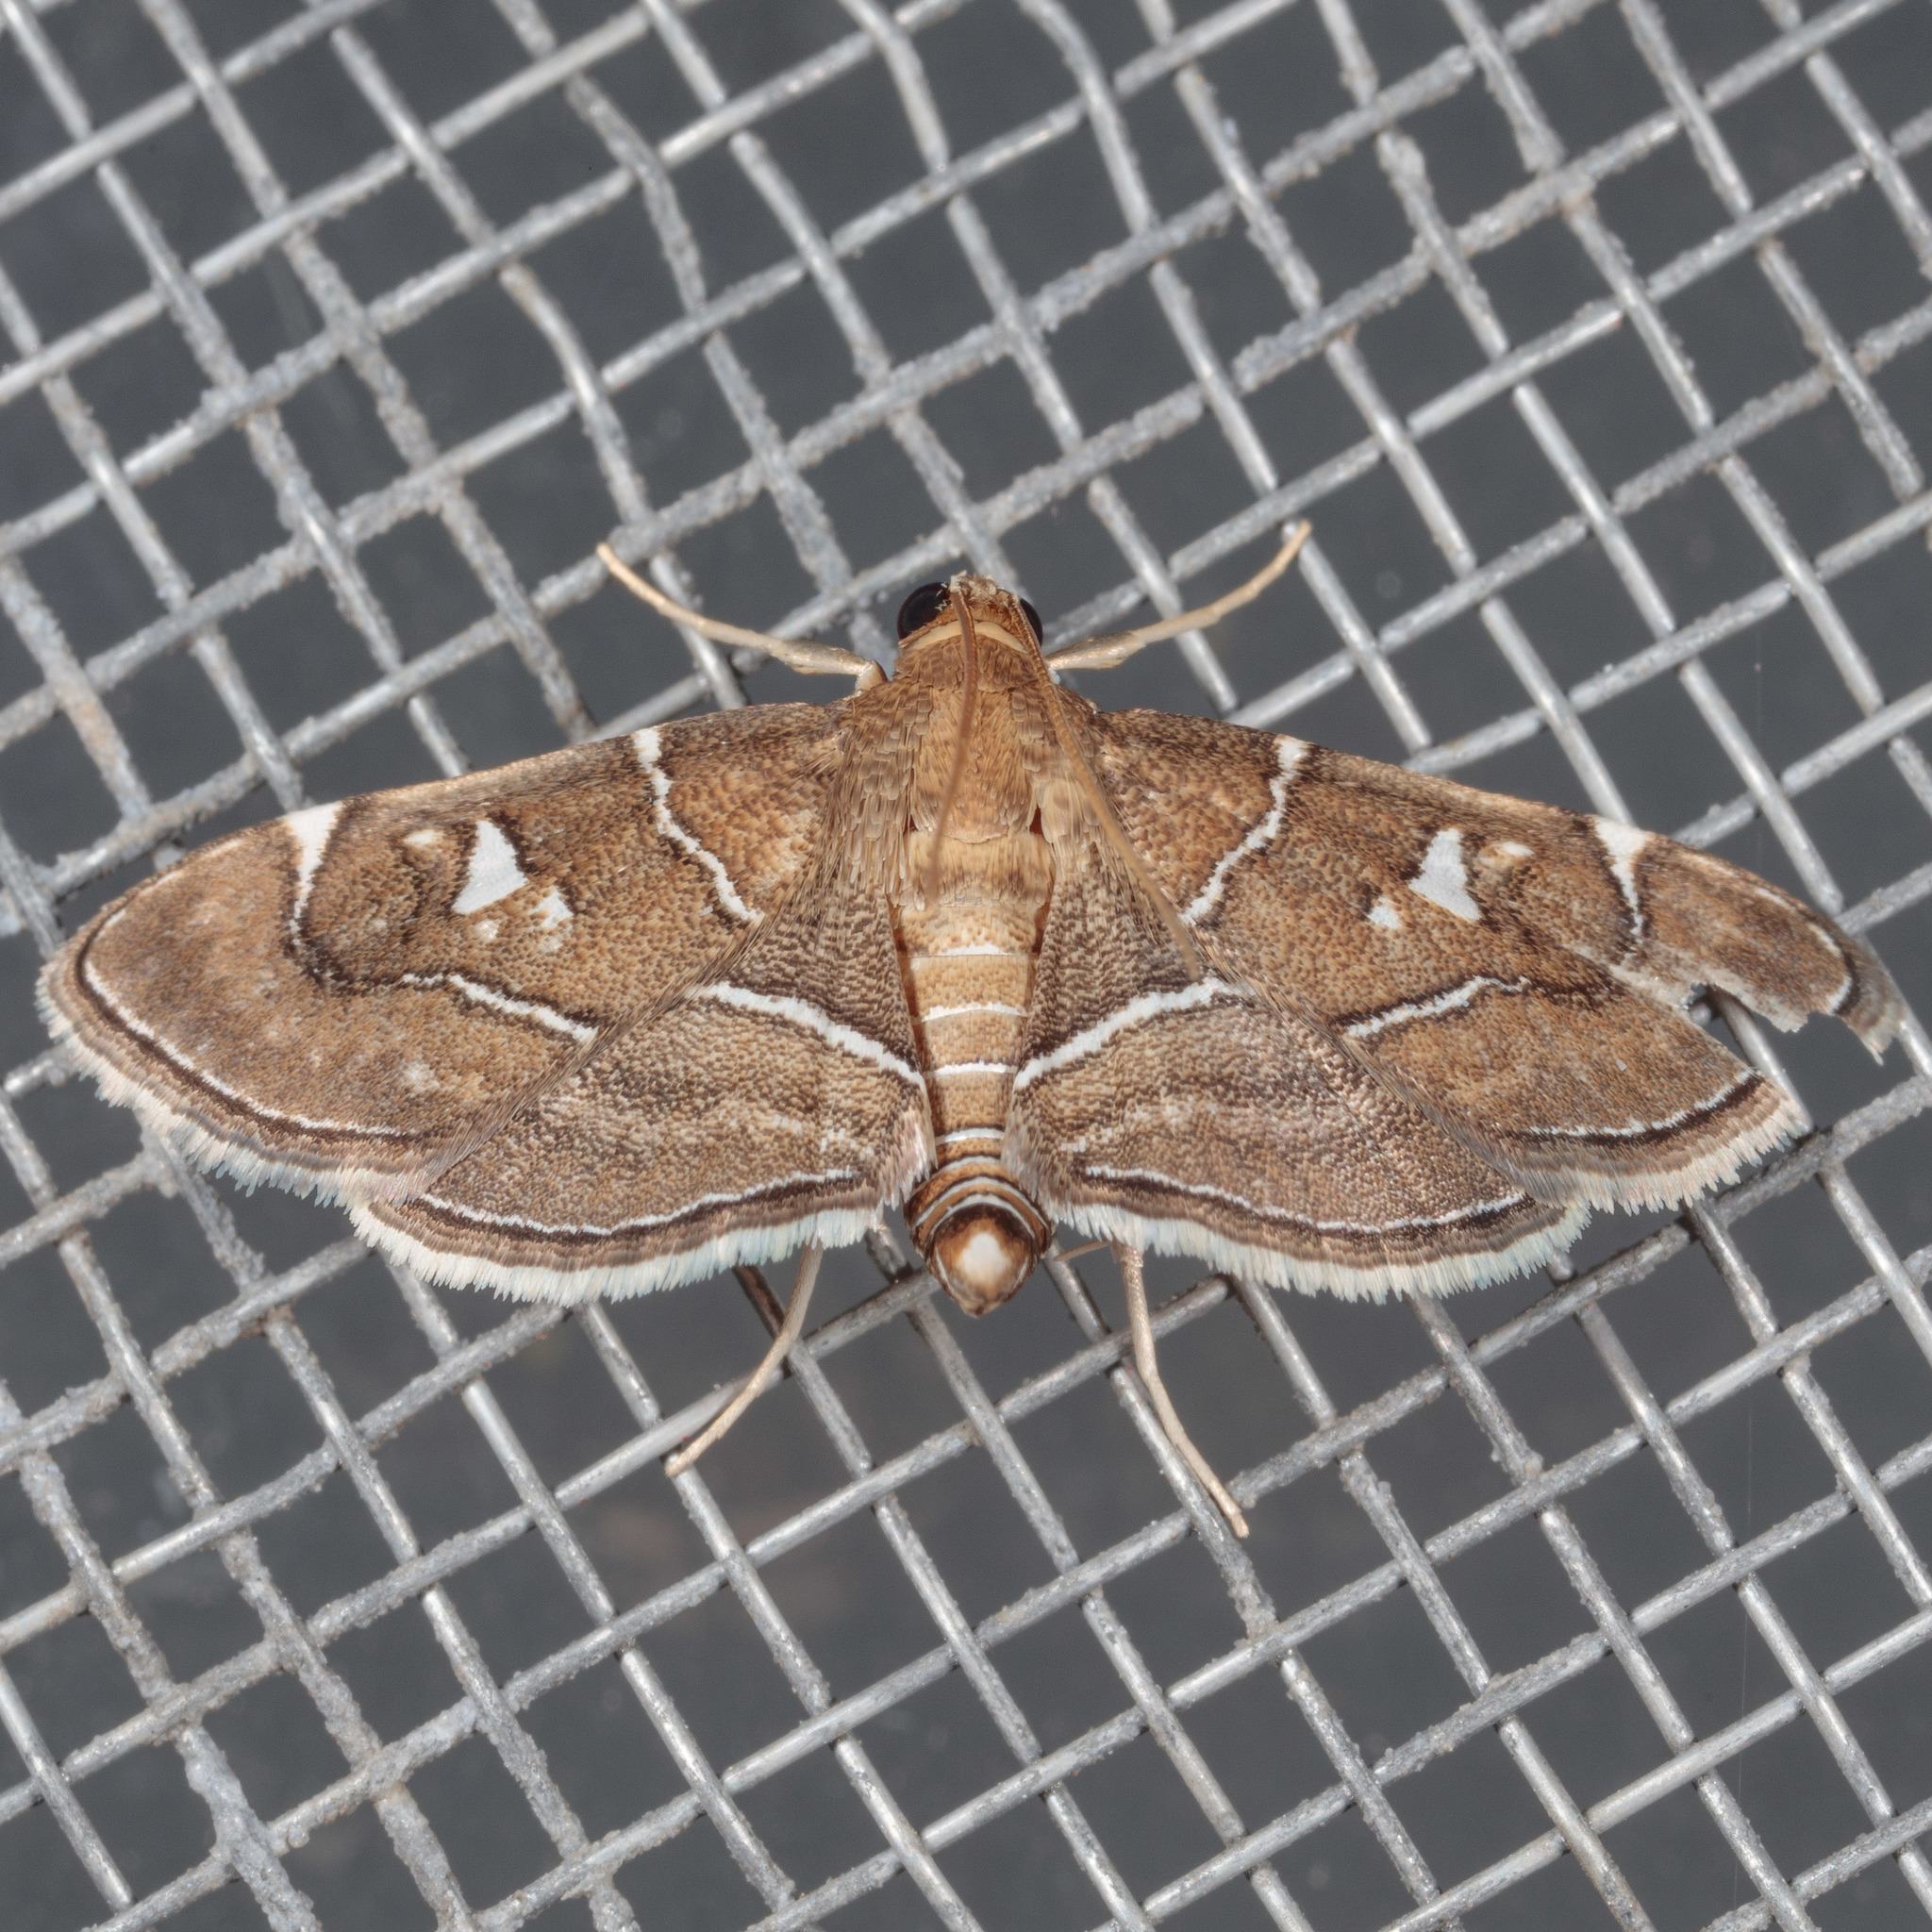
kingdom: Animalia
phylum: Arthropoda
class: Insecta
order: Lepidoptera
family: Crambidae
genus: Lamprosema
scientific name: Lamprosema victoriae
